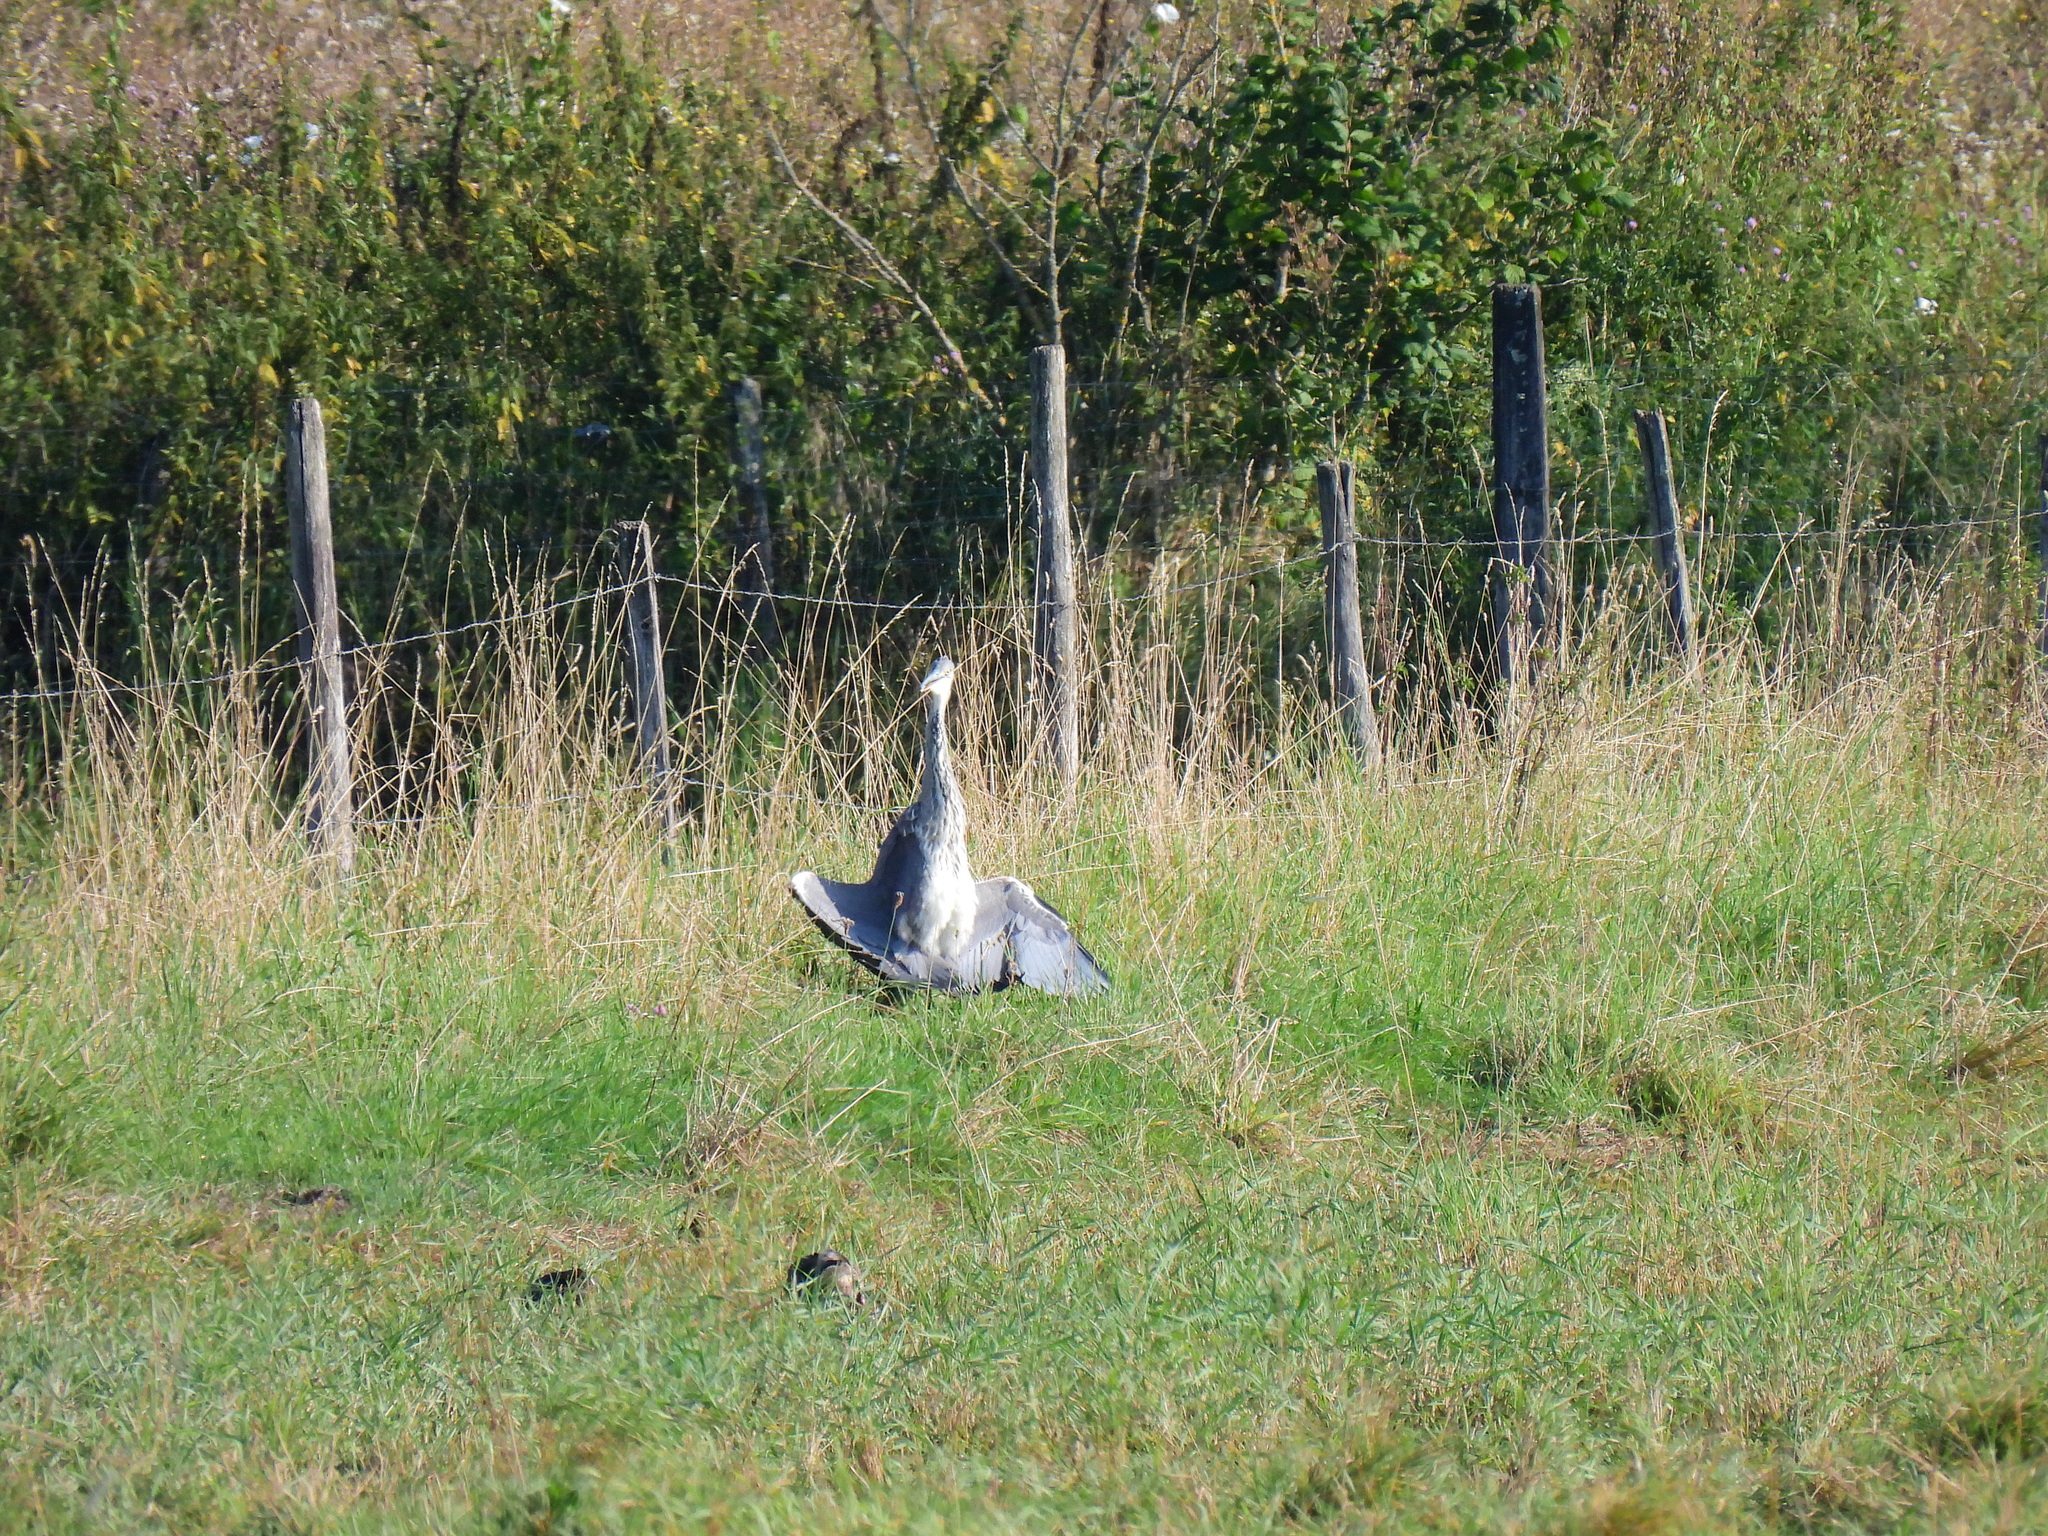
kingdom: Animalia
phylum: Chordata
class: Aves
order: Pelecaniformes
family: Ardeidae
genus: Ardea
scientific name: Ardea cinerea
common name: Grey heron
